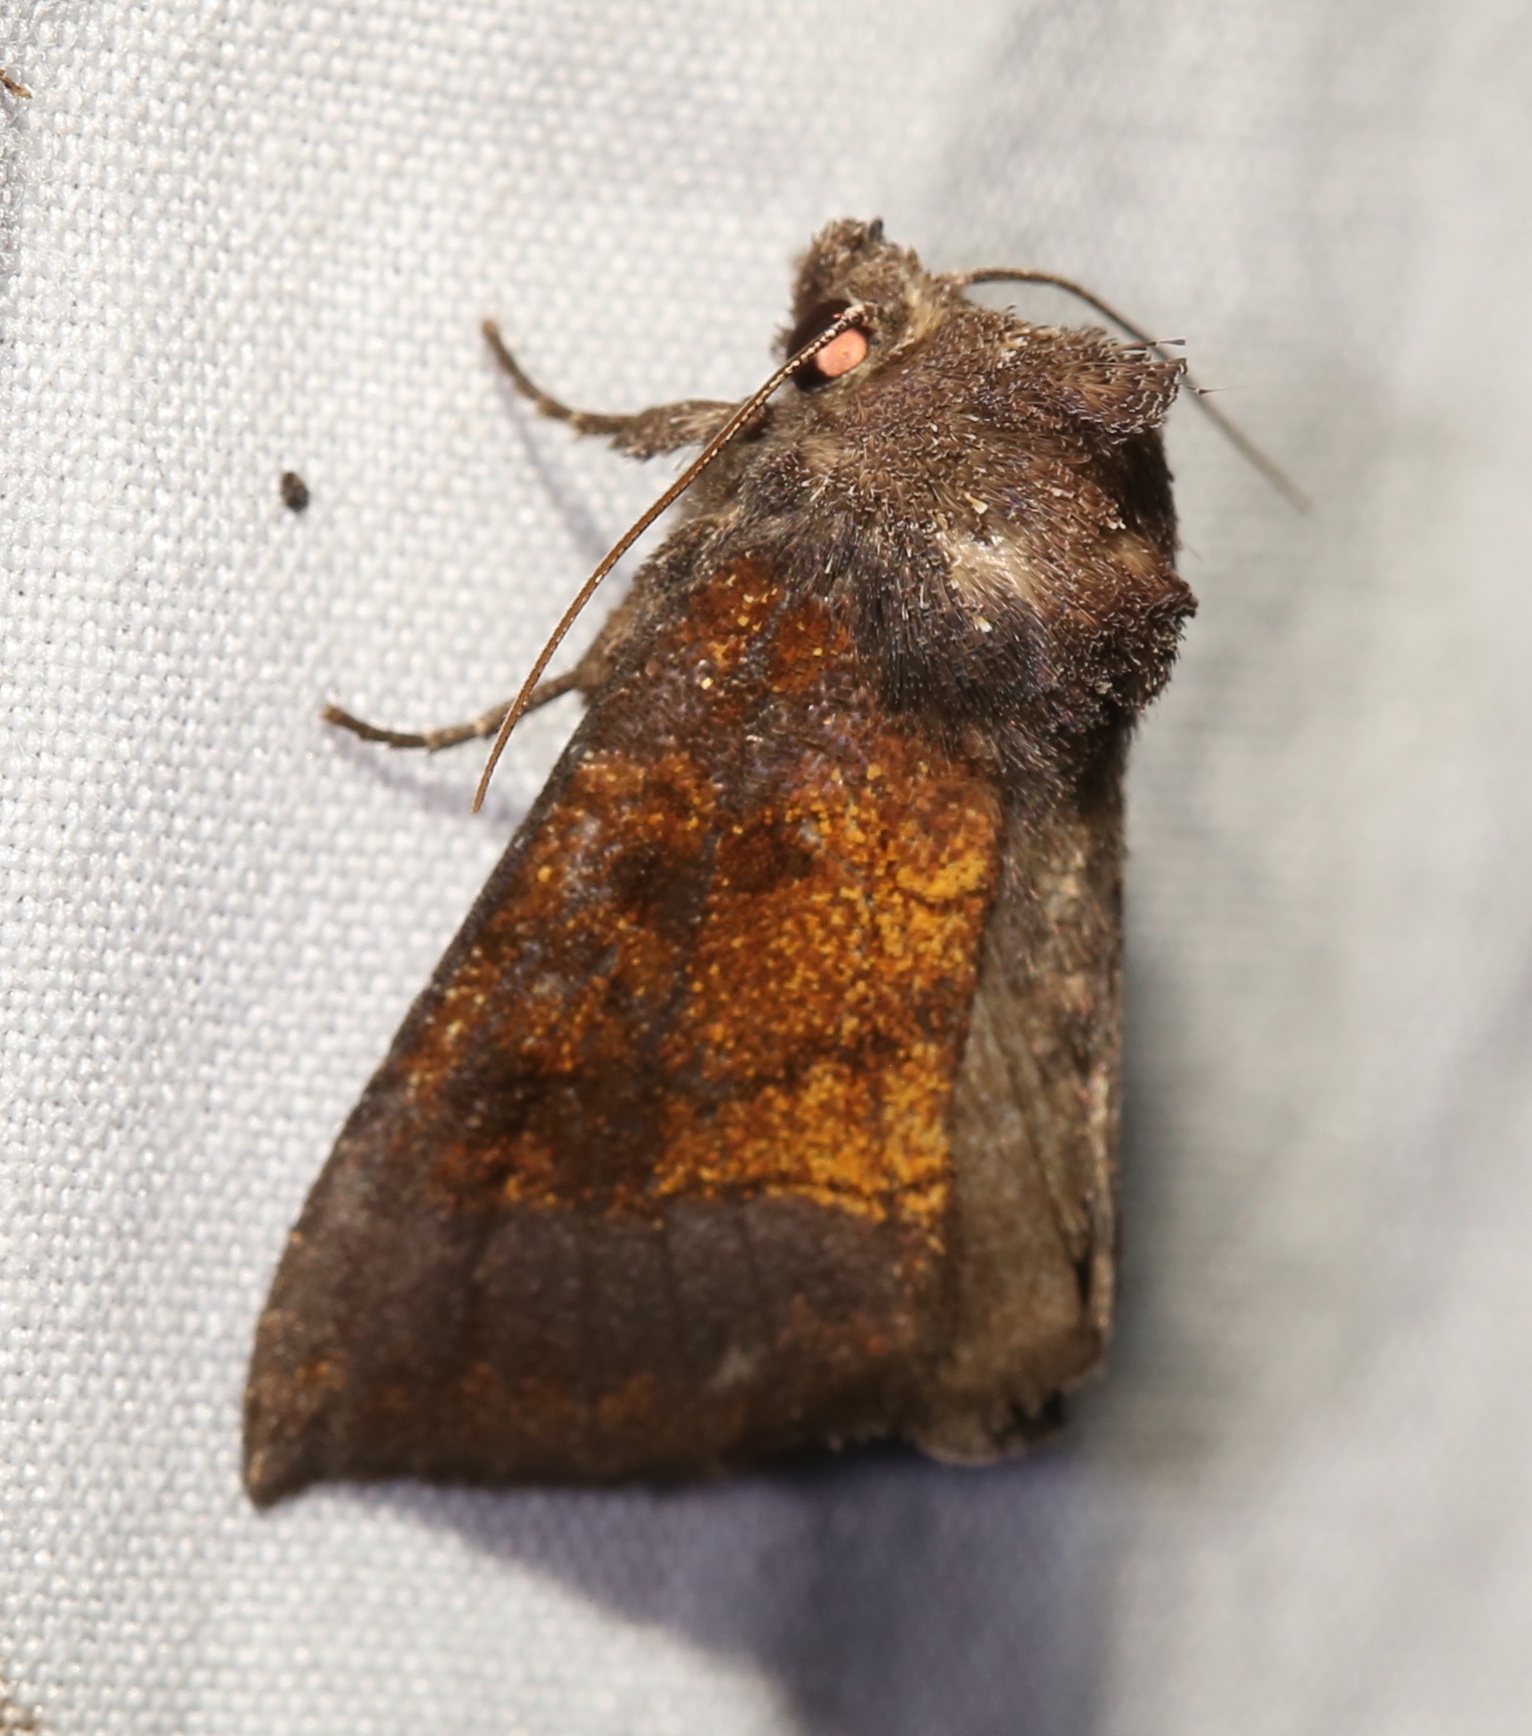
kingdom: Animalia
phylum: Arthropoda
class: Insecta
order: Lepidoptera
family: Noctuidae
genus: Papaipema
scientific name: Papaipema nelita
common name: Coneflower borer moth
